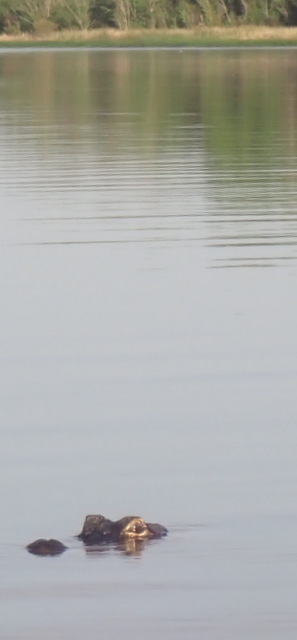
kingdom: Animalia
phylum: Chordata
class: Crocodylia
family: Alligatoridae
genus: Alligator
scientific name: Alligator mississippiensis
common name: American alligator
